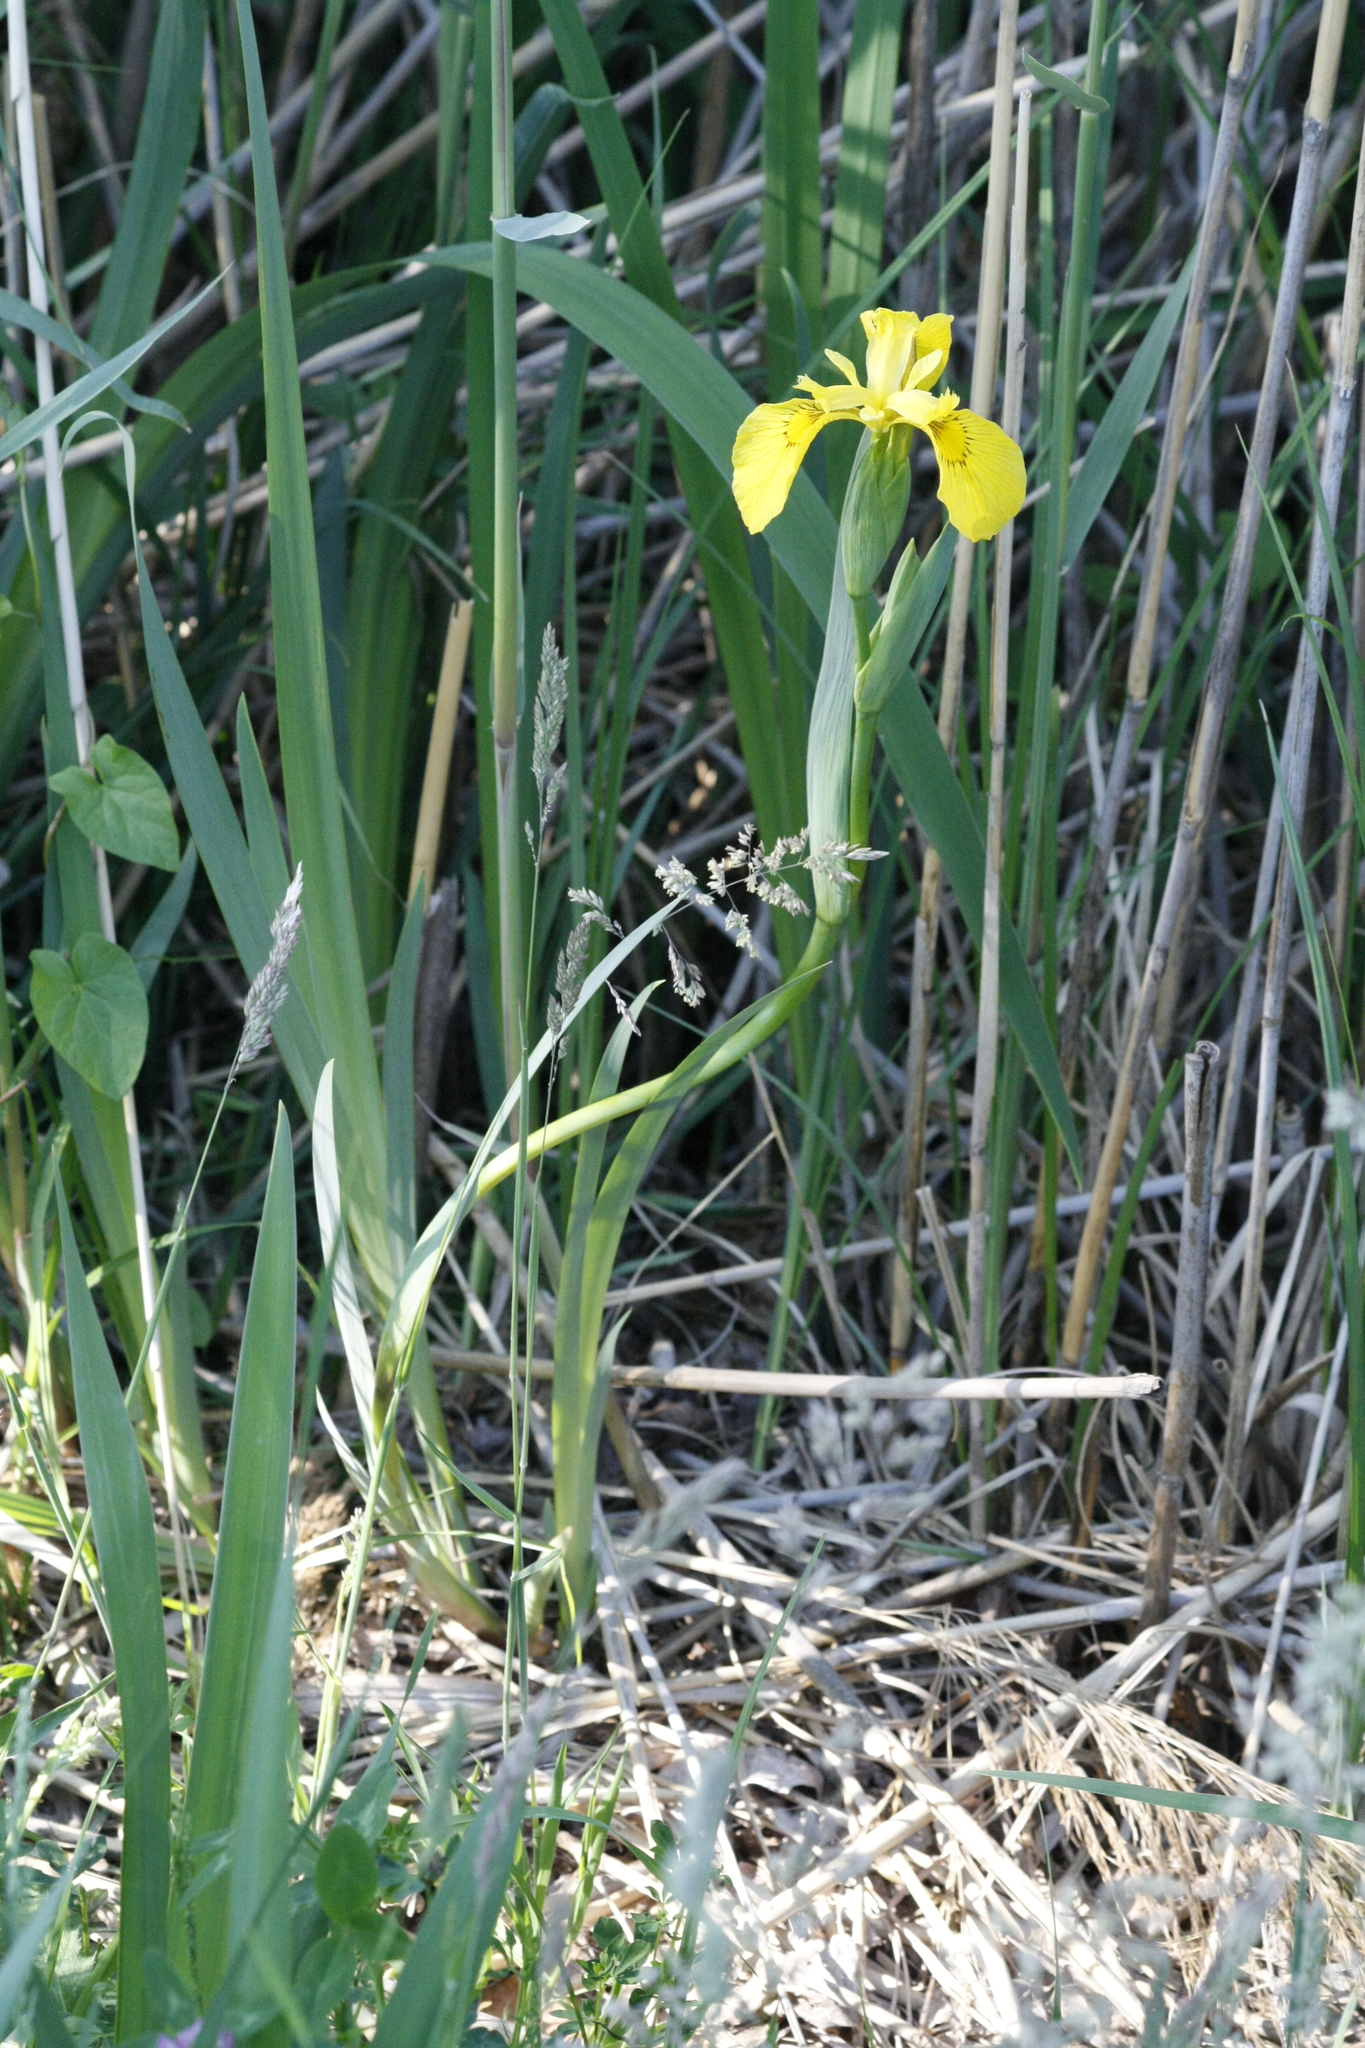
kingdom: Plantae
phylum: Tracheophyta
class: Liliopsida
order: Asparagales
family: Iridaceae
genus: Iris
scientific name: Iris pseudacorus
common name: Yellow flag
